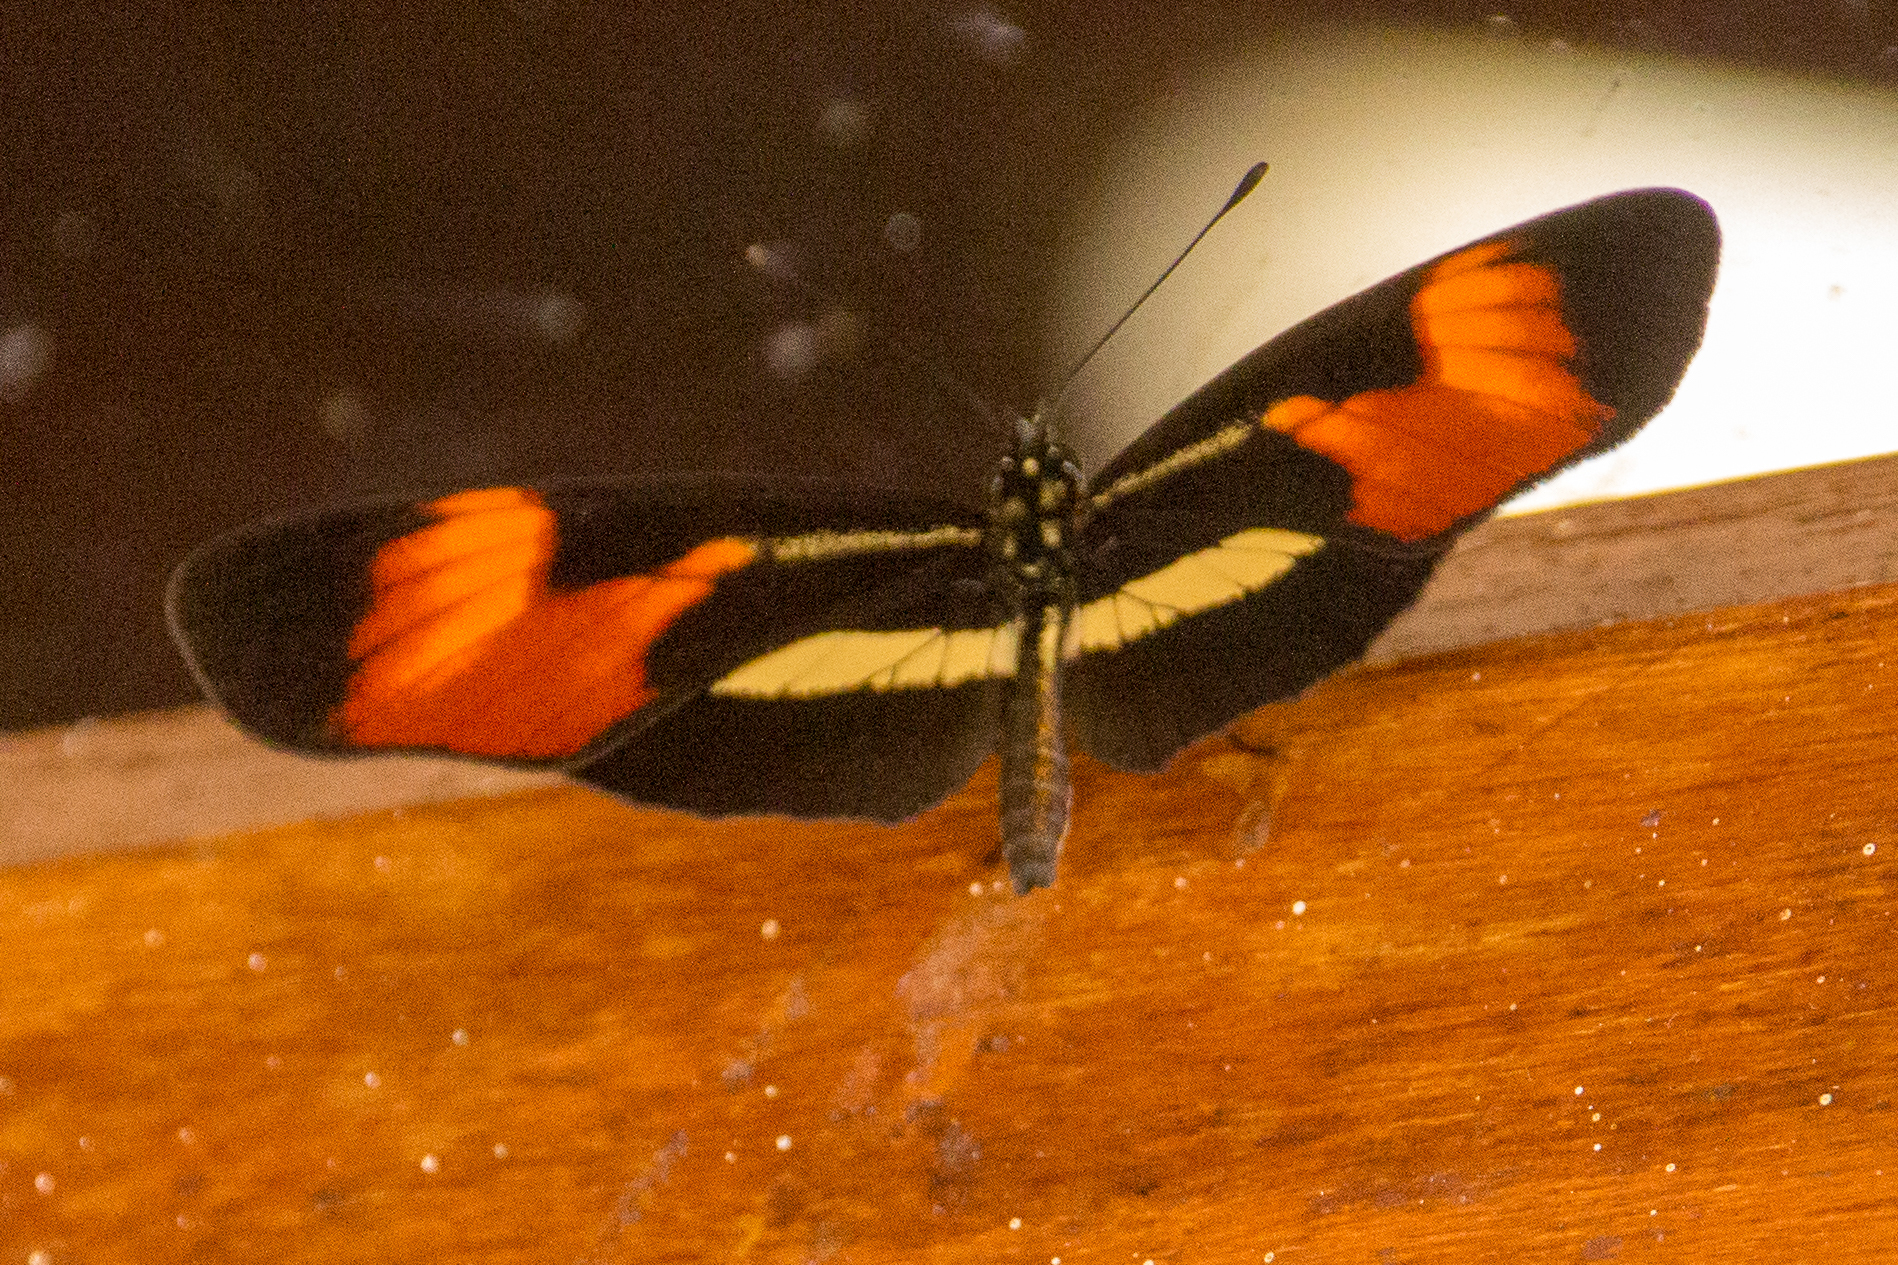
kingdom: Animalia
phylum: Arthropoda
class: Insecta
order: Lepidoptera
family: Nymphalidae
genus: Eresia
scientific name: Eresia lansdorfi
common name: Lansdorf's crescent
